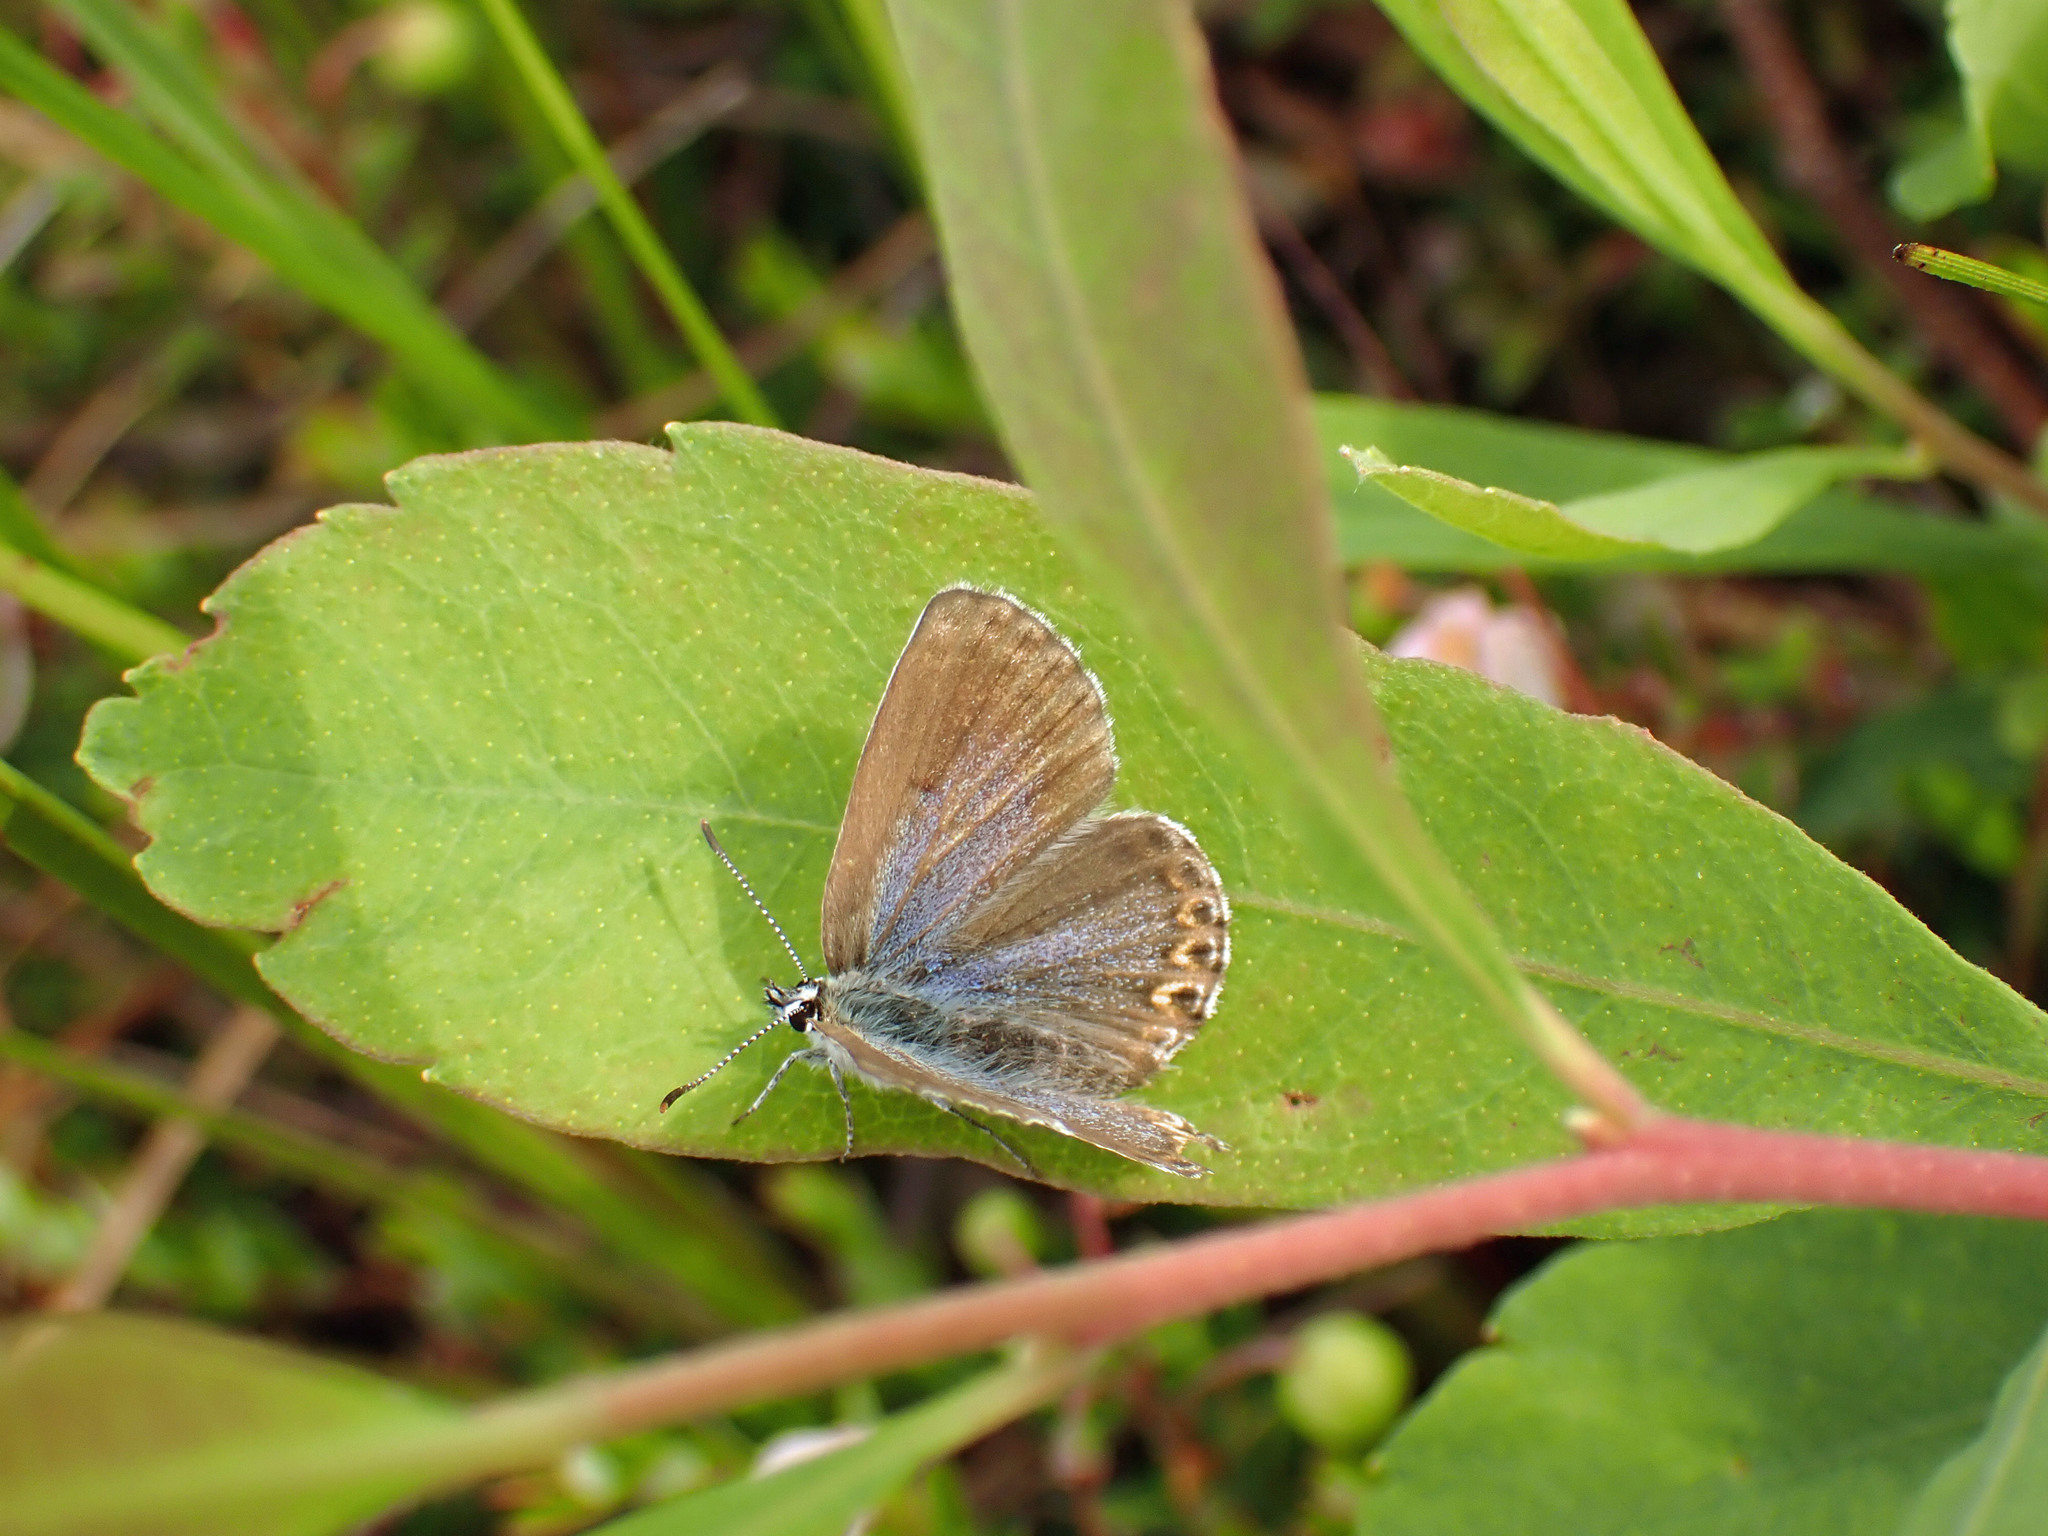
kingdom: Animalia
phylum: Arthropoda
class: Insecta
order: Lepidoptera
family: Lycaenidae
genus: Lycaeides
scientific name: Lycaeides idas
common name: Northern blue
